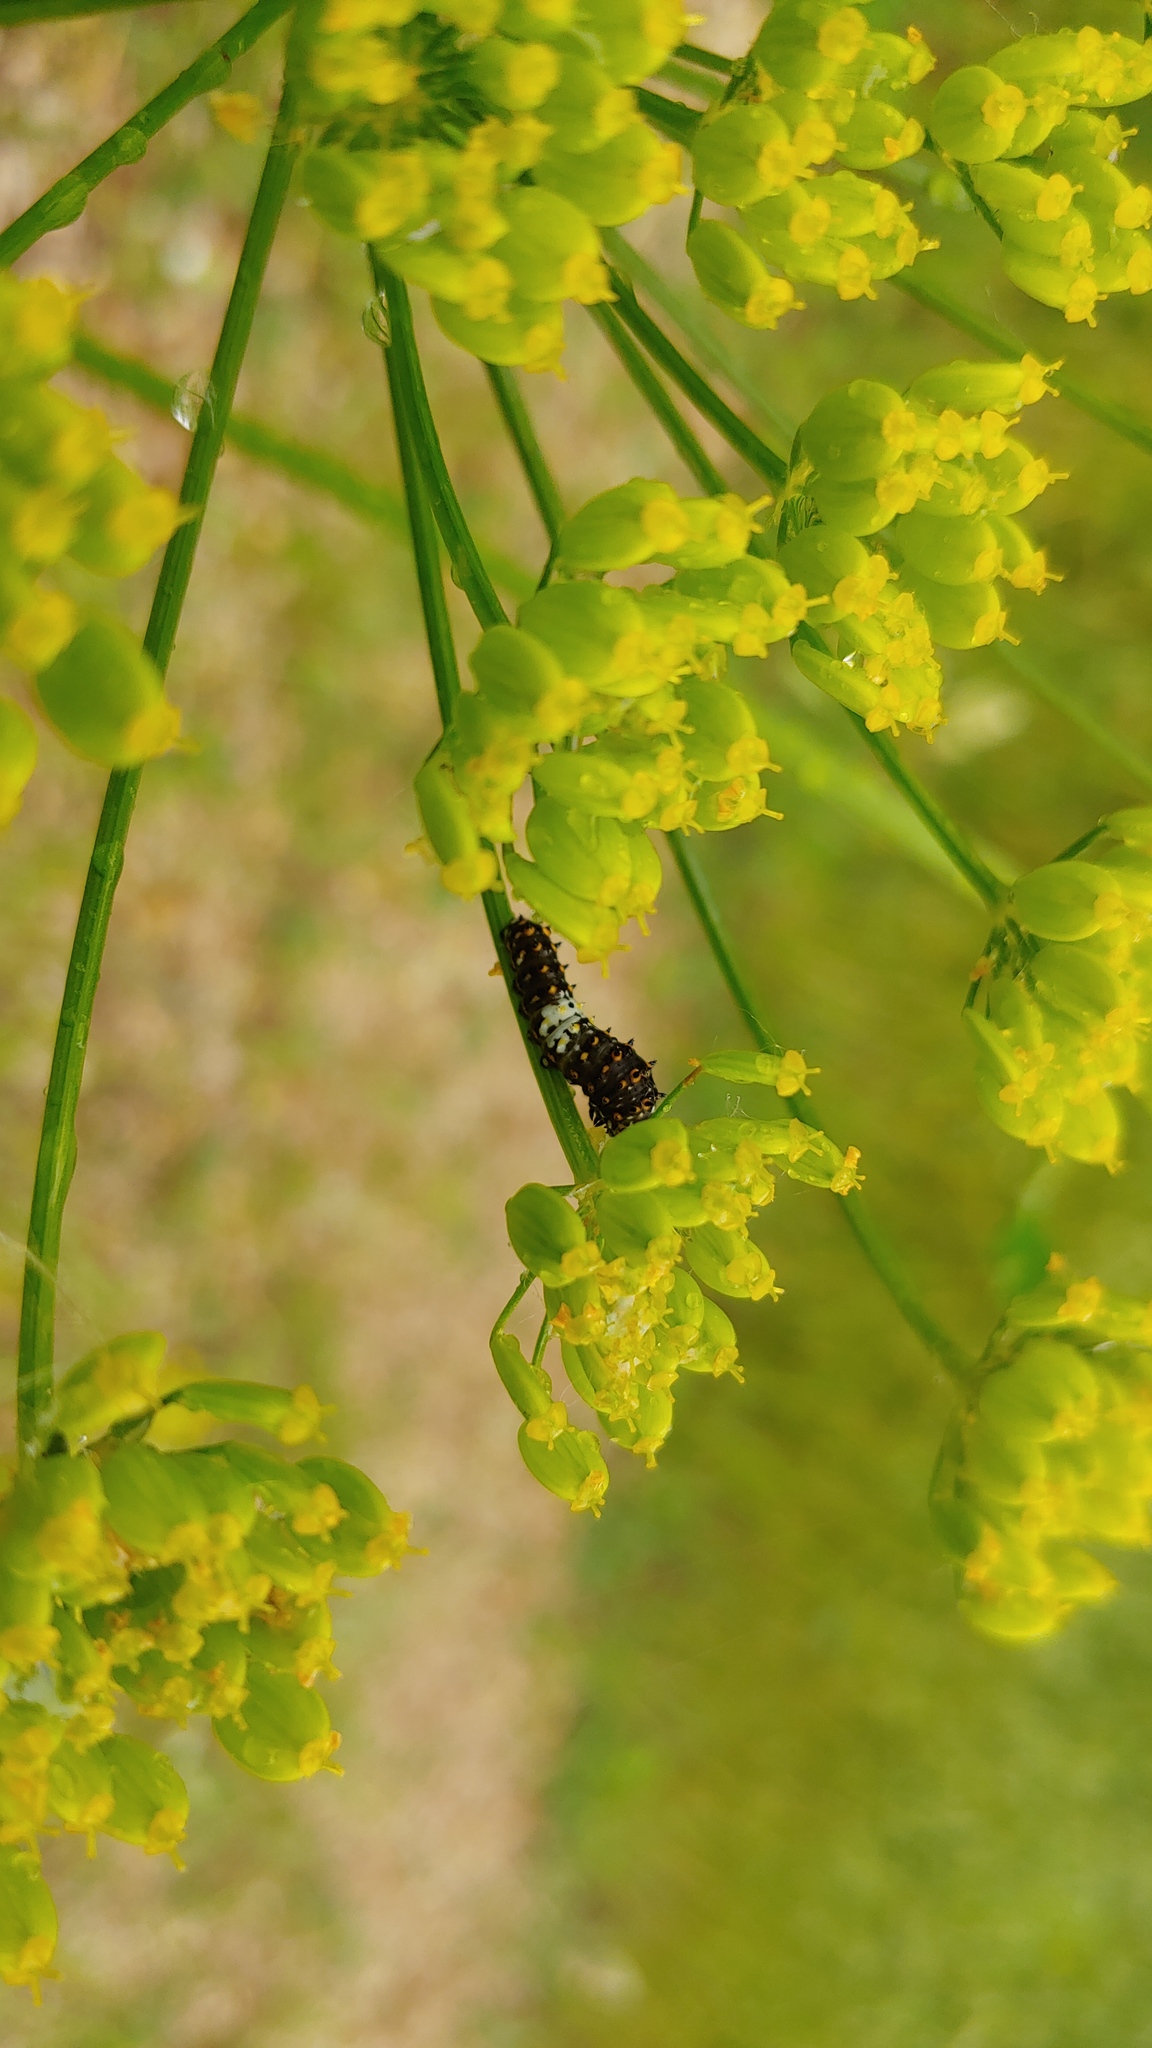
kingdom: Animalia
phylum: Arthropoda
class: Insecta
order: Lepidoptera
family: Papilionidae
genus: Papilio
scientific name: Papilio polyxenes
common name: Black swallowtail
